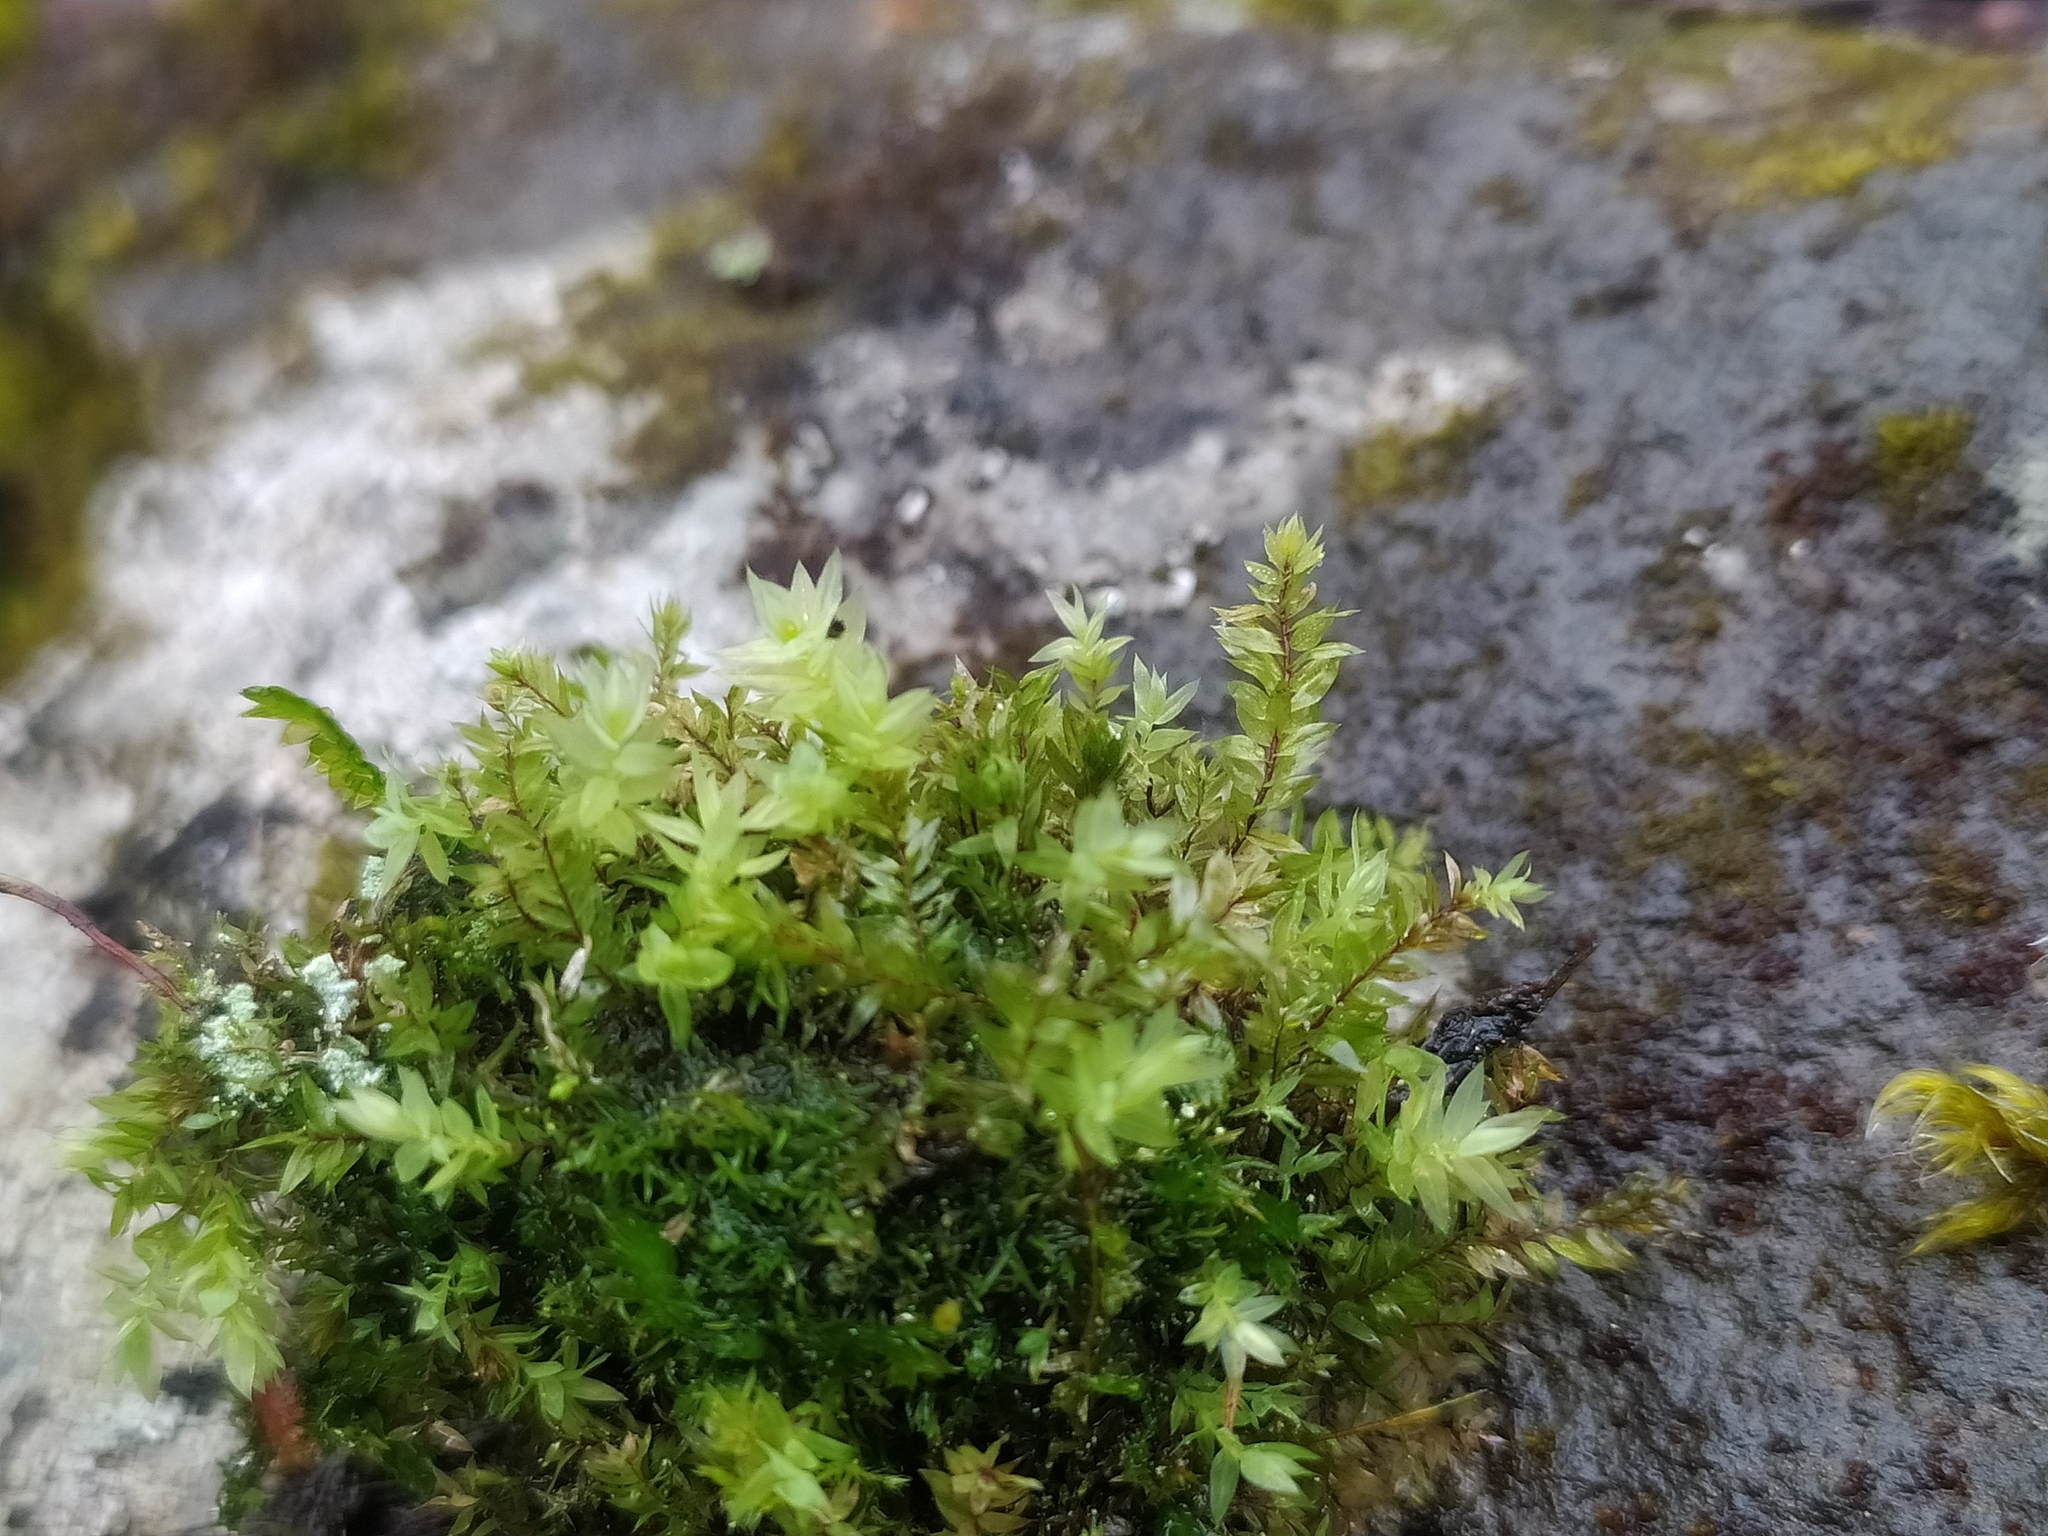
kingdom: Plantae
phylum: Bryophyta
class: Bryopsida
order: Bryales
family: Mniaceae
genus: Pohlia
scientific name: Pohlia cruda
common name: Opal nodding moss
